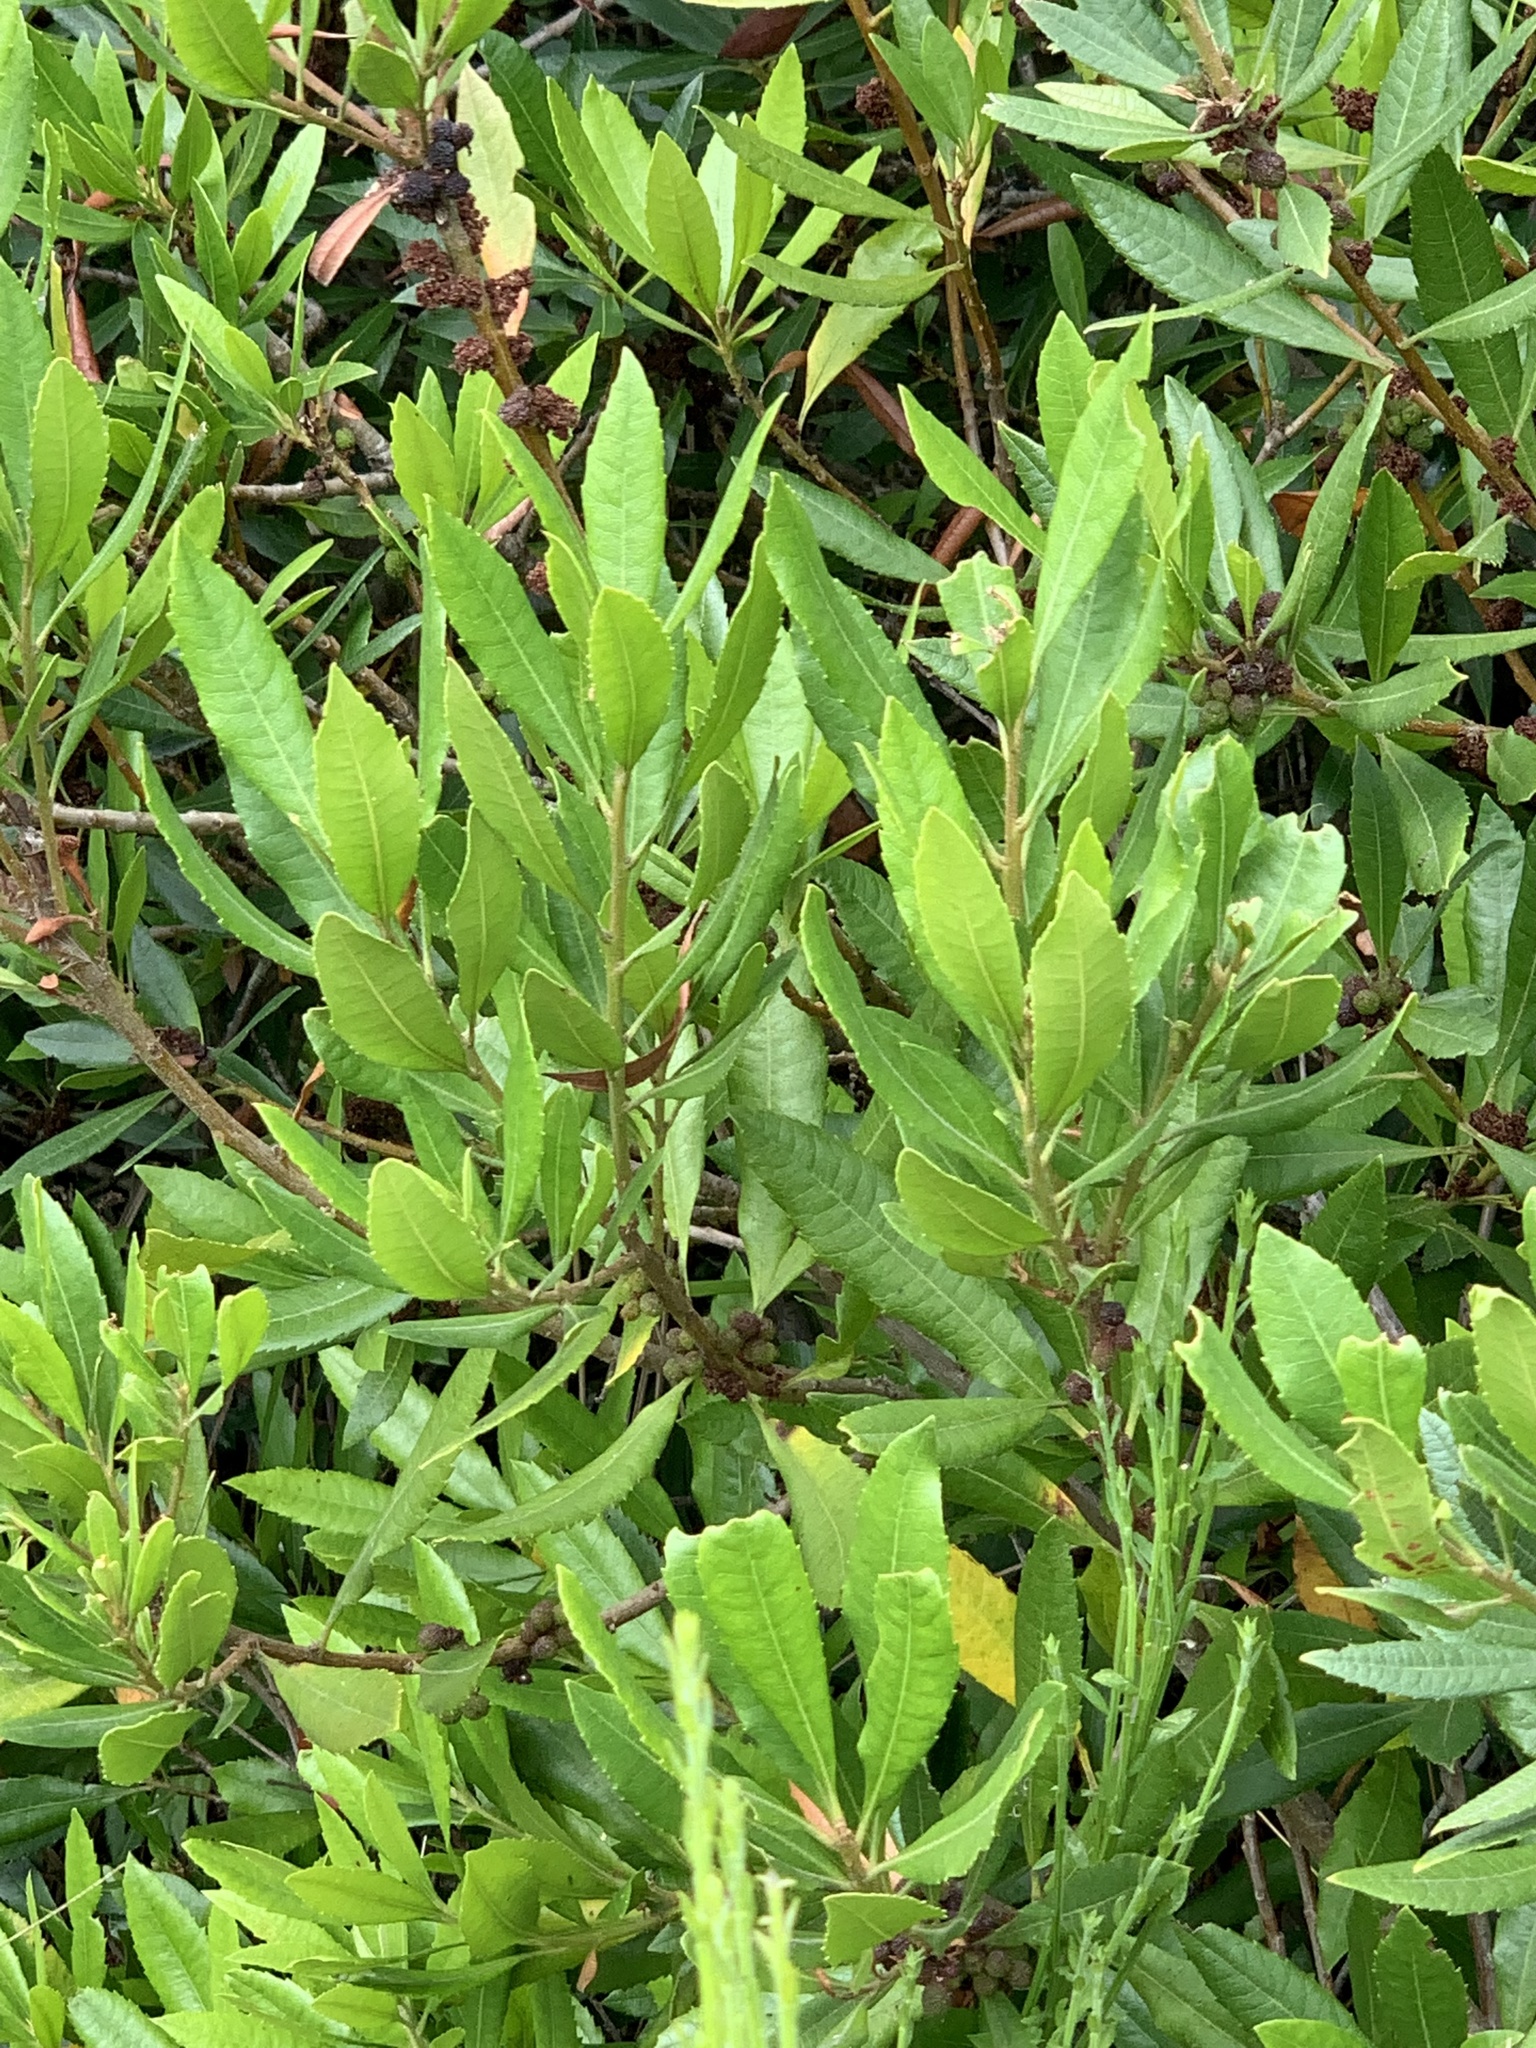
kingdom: Plantae
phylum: Tracheophyta
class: Magnoliopsida
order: Fagales
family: Myricaceae
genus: Morella
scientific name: Morella californica
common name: California wax-myrtle
